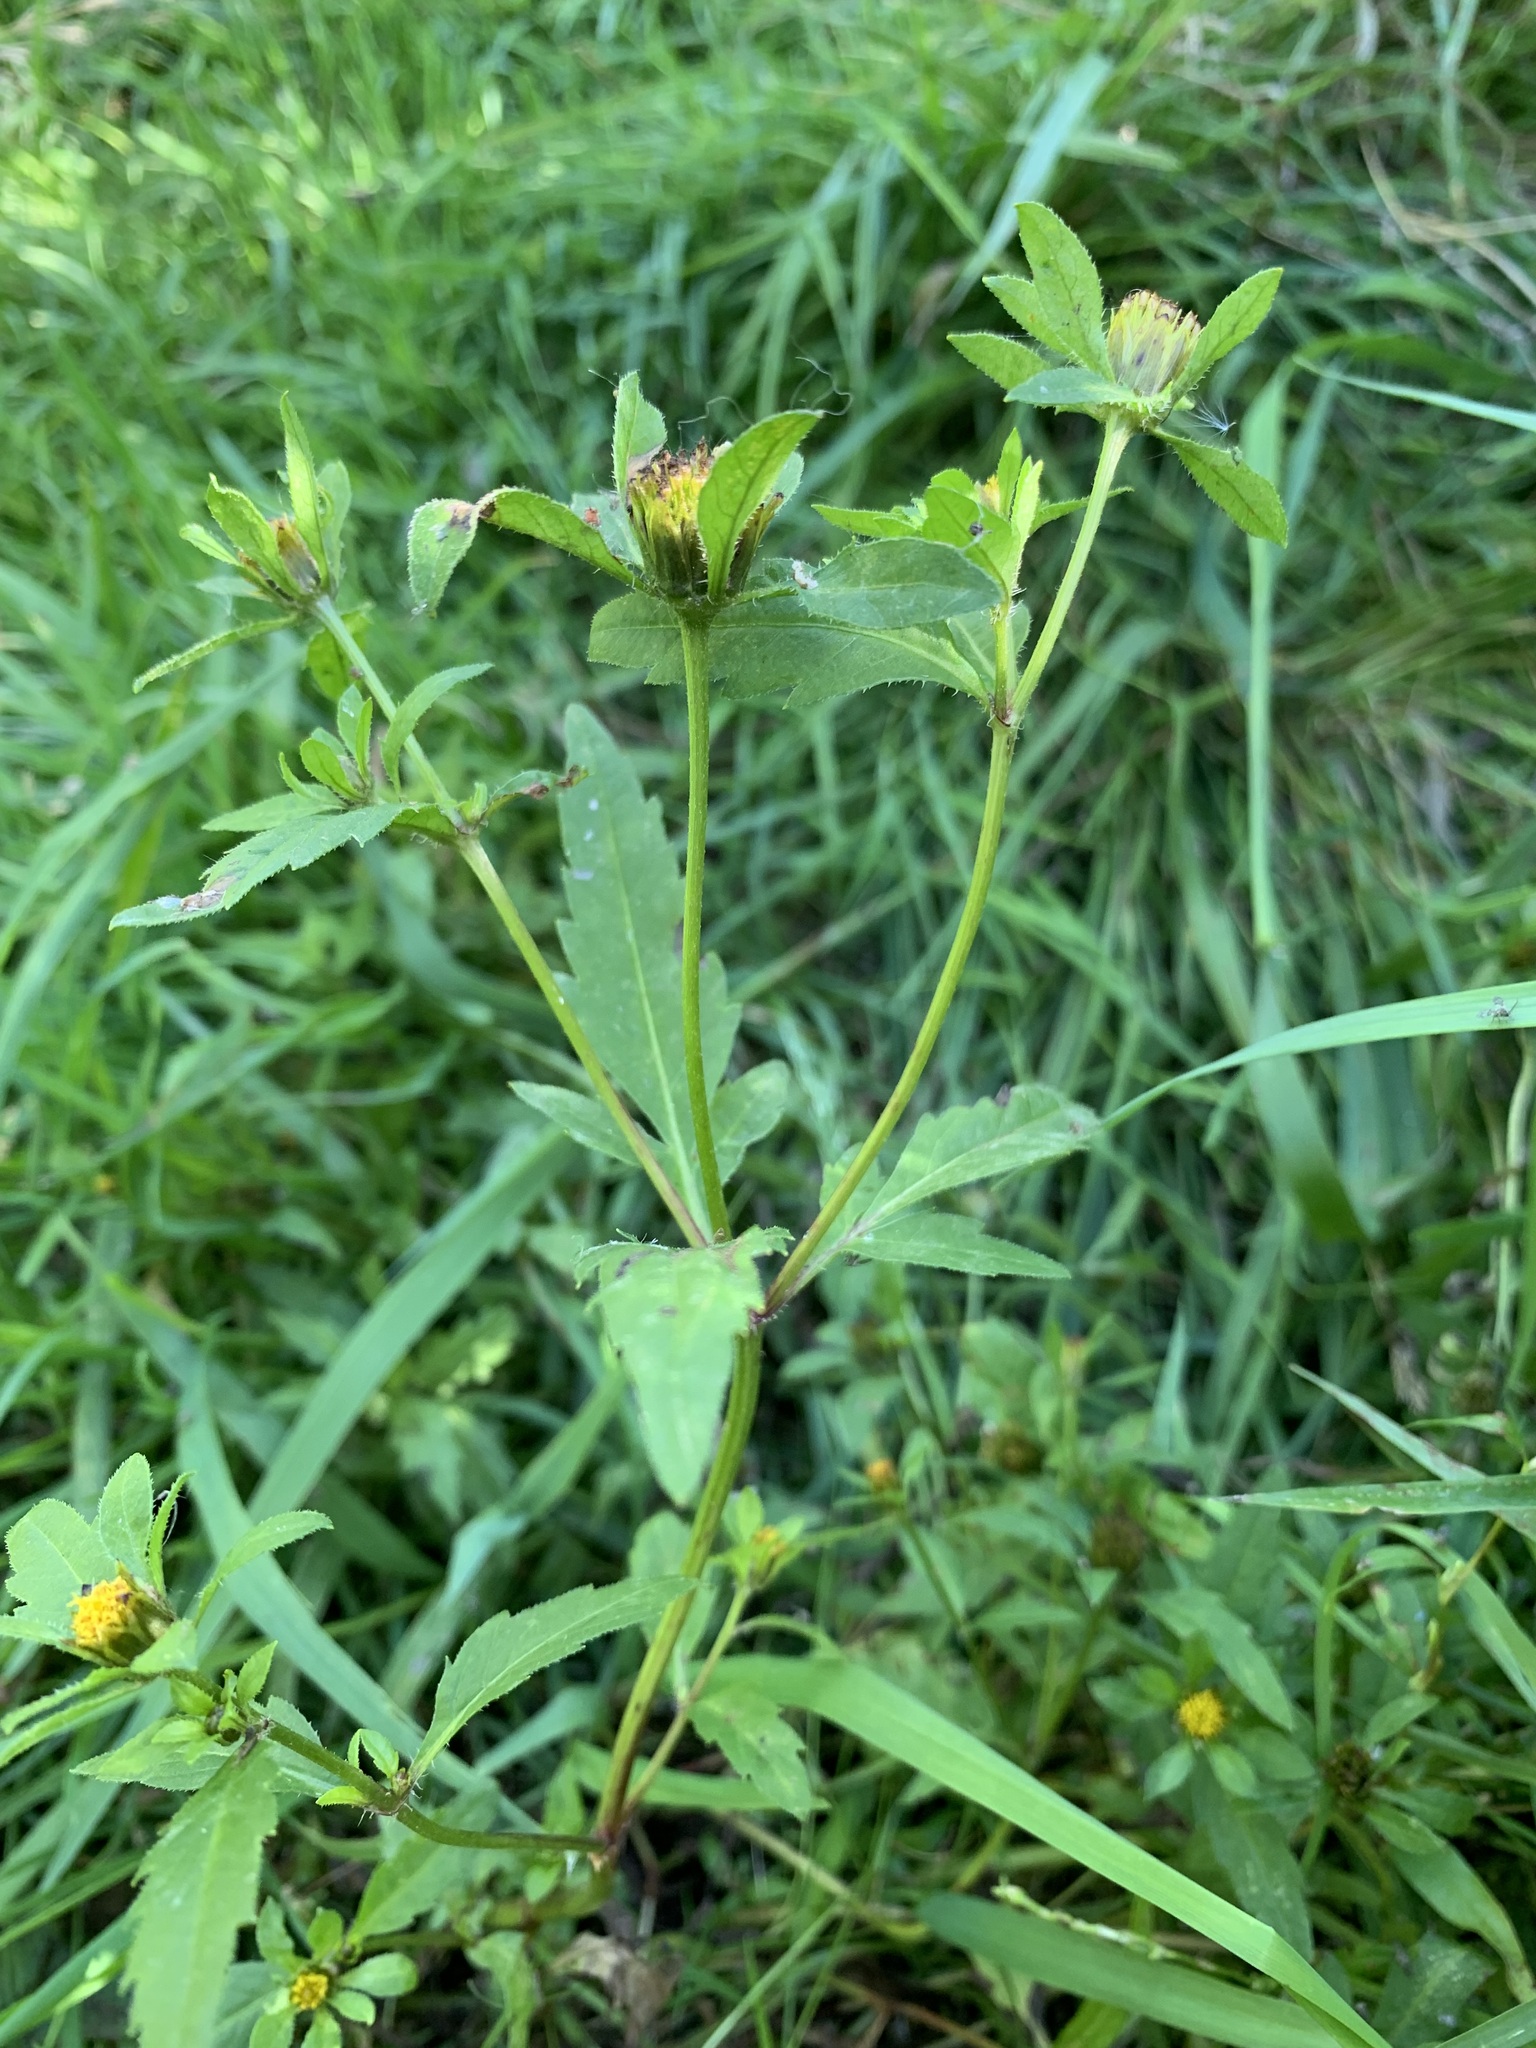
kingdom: Plantae
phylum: Tracheophyta
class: Magnoliopsida
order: Asterales
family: Asteraceae
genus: Bidens
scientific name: Bidens tripartita
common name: Trifid bur-marigold
